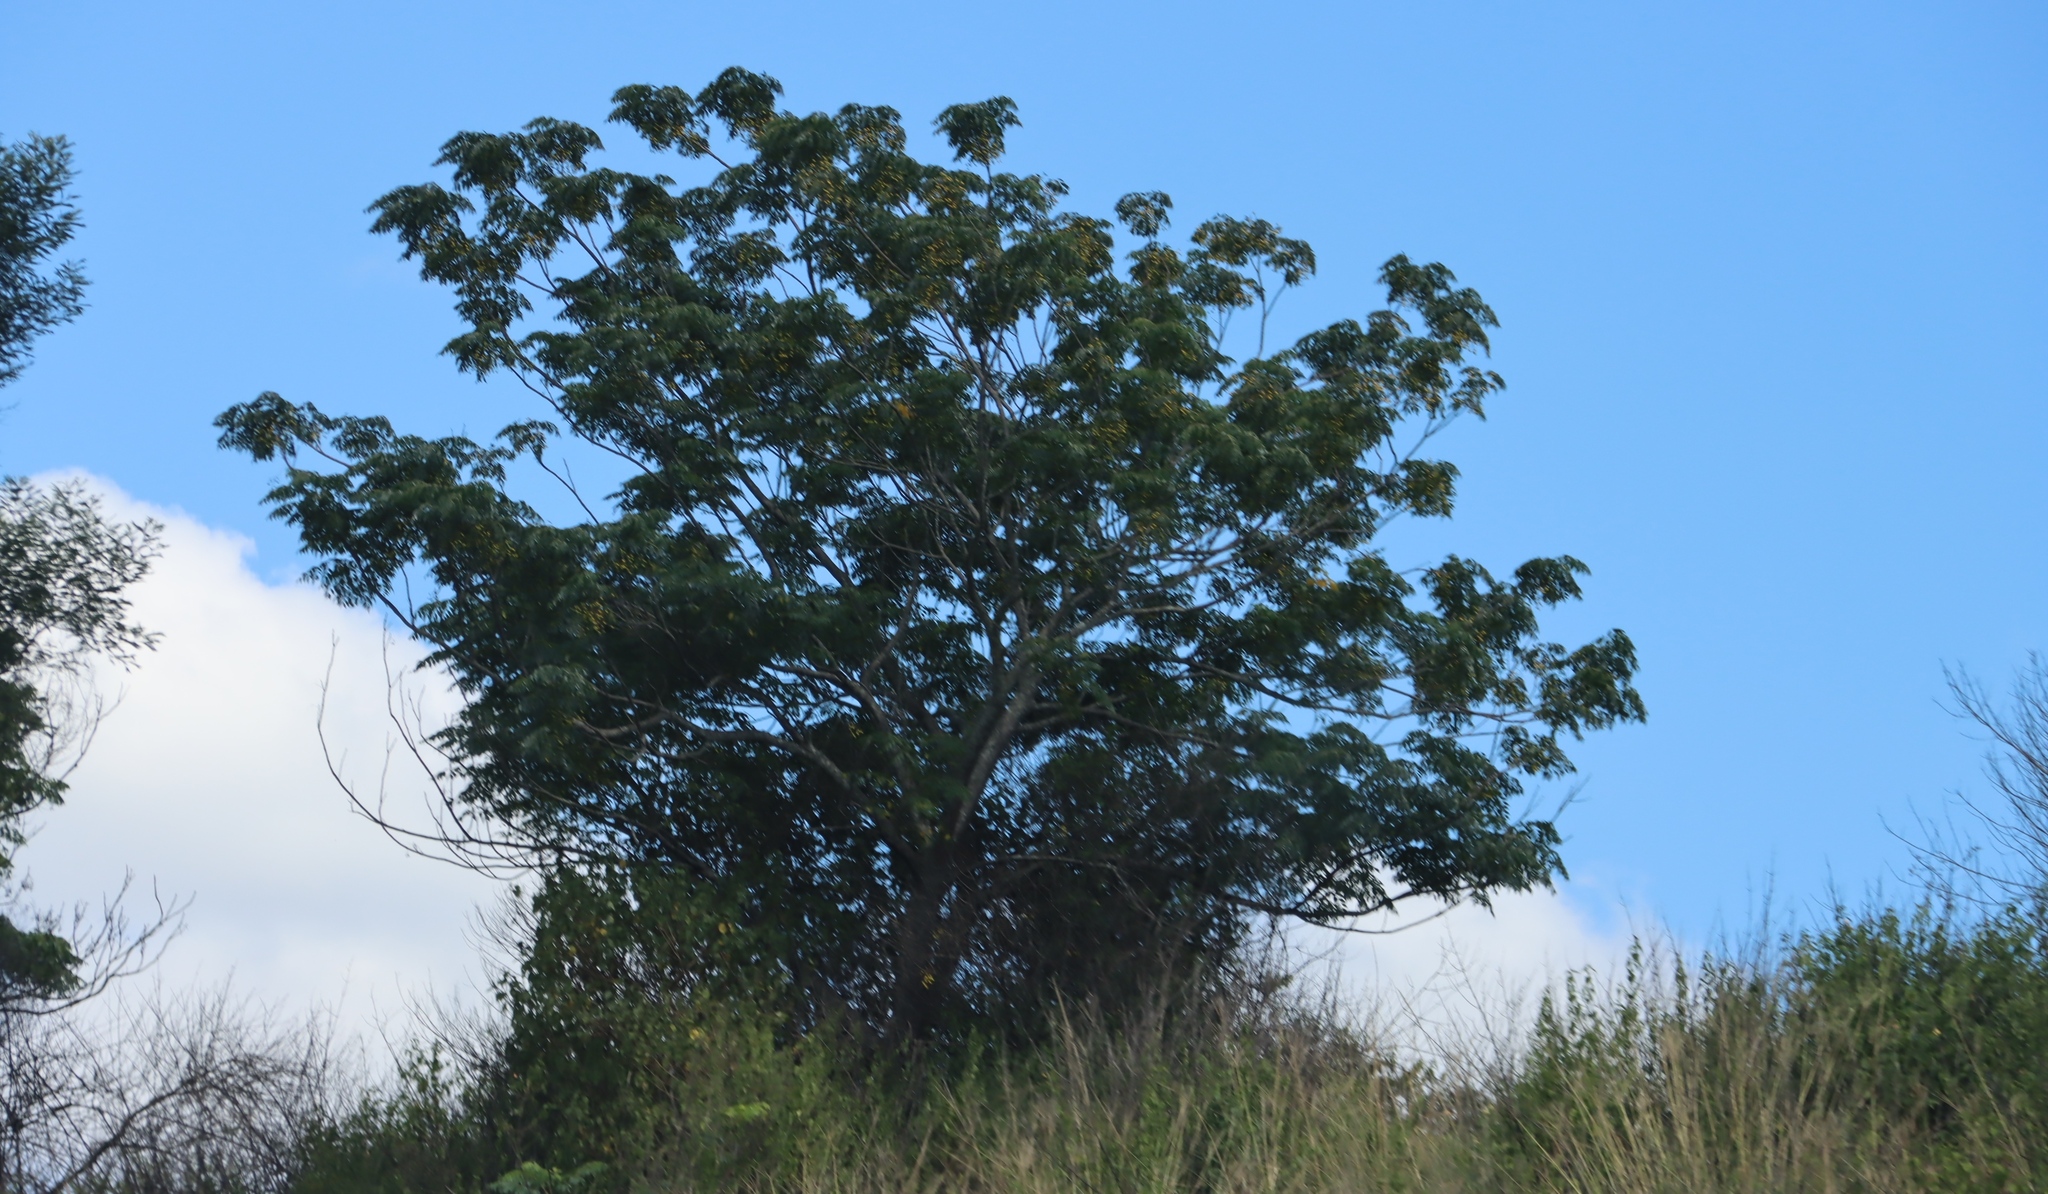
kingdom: Plantae
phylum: Tracheophyta
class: Magnoliopsida
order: Sapindales
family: Meliaceae
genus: Melia
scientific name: Melia azedarach
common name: Chinaberrytree
